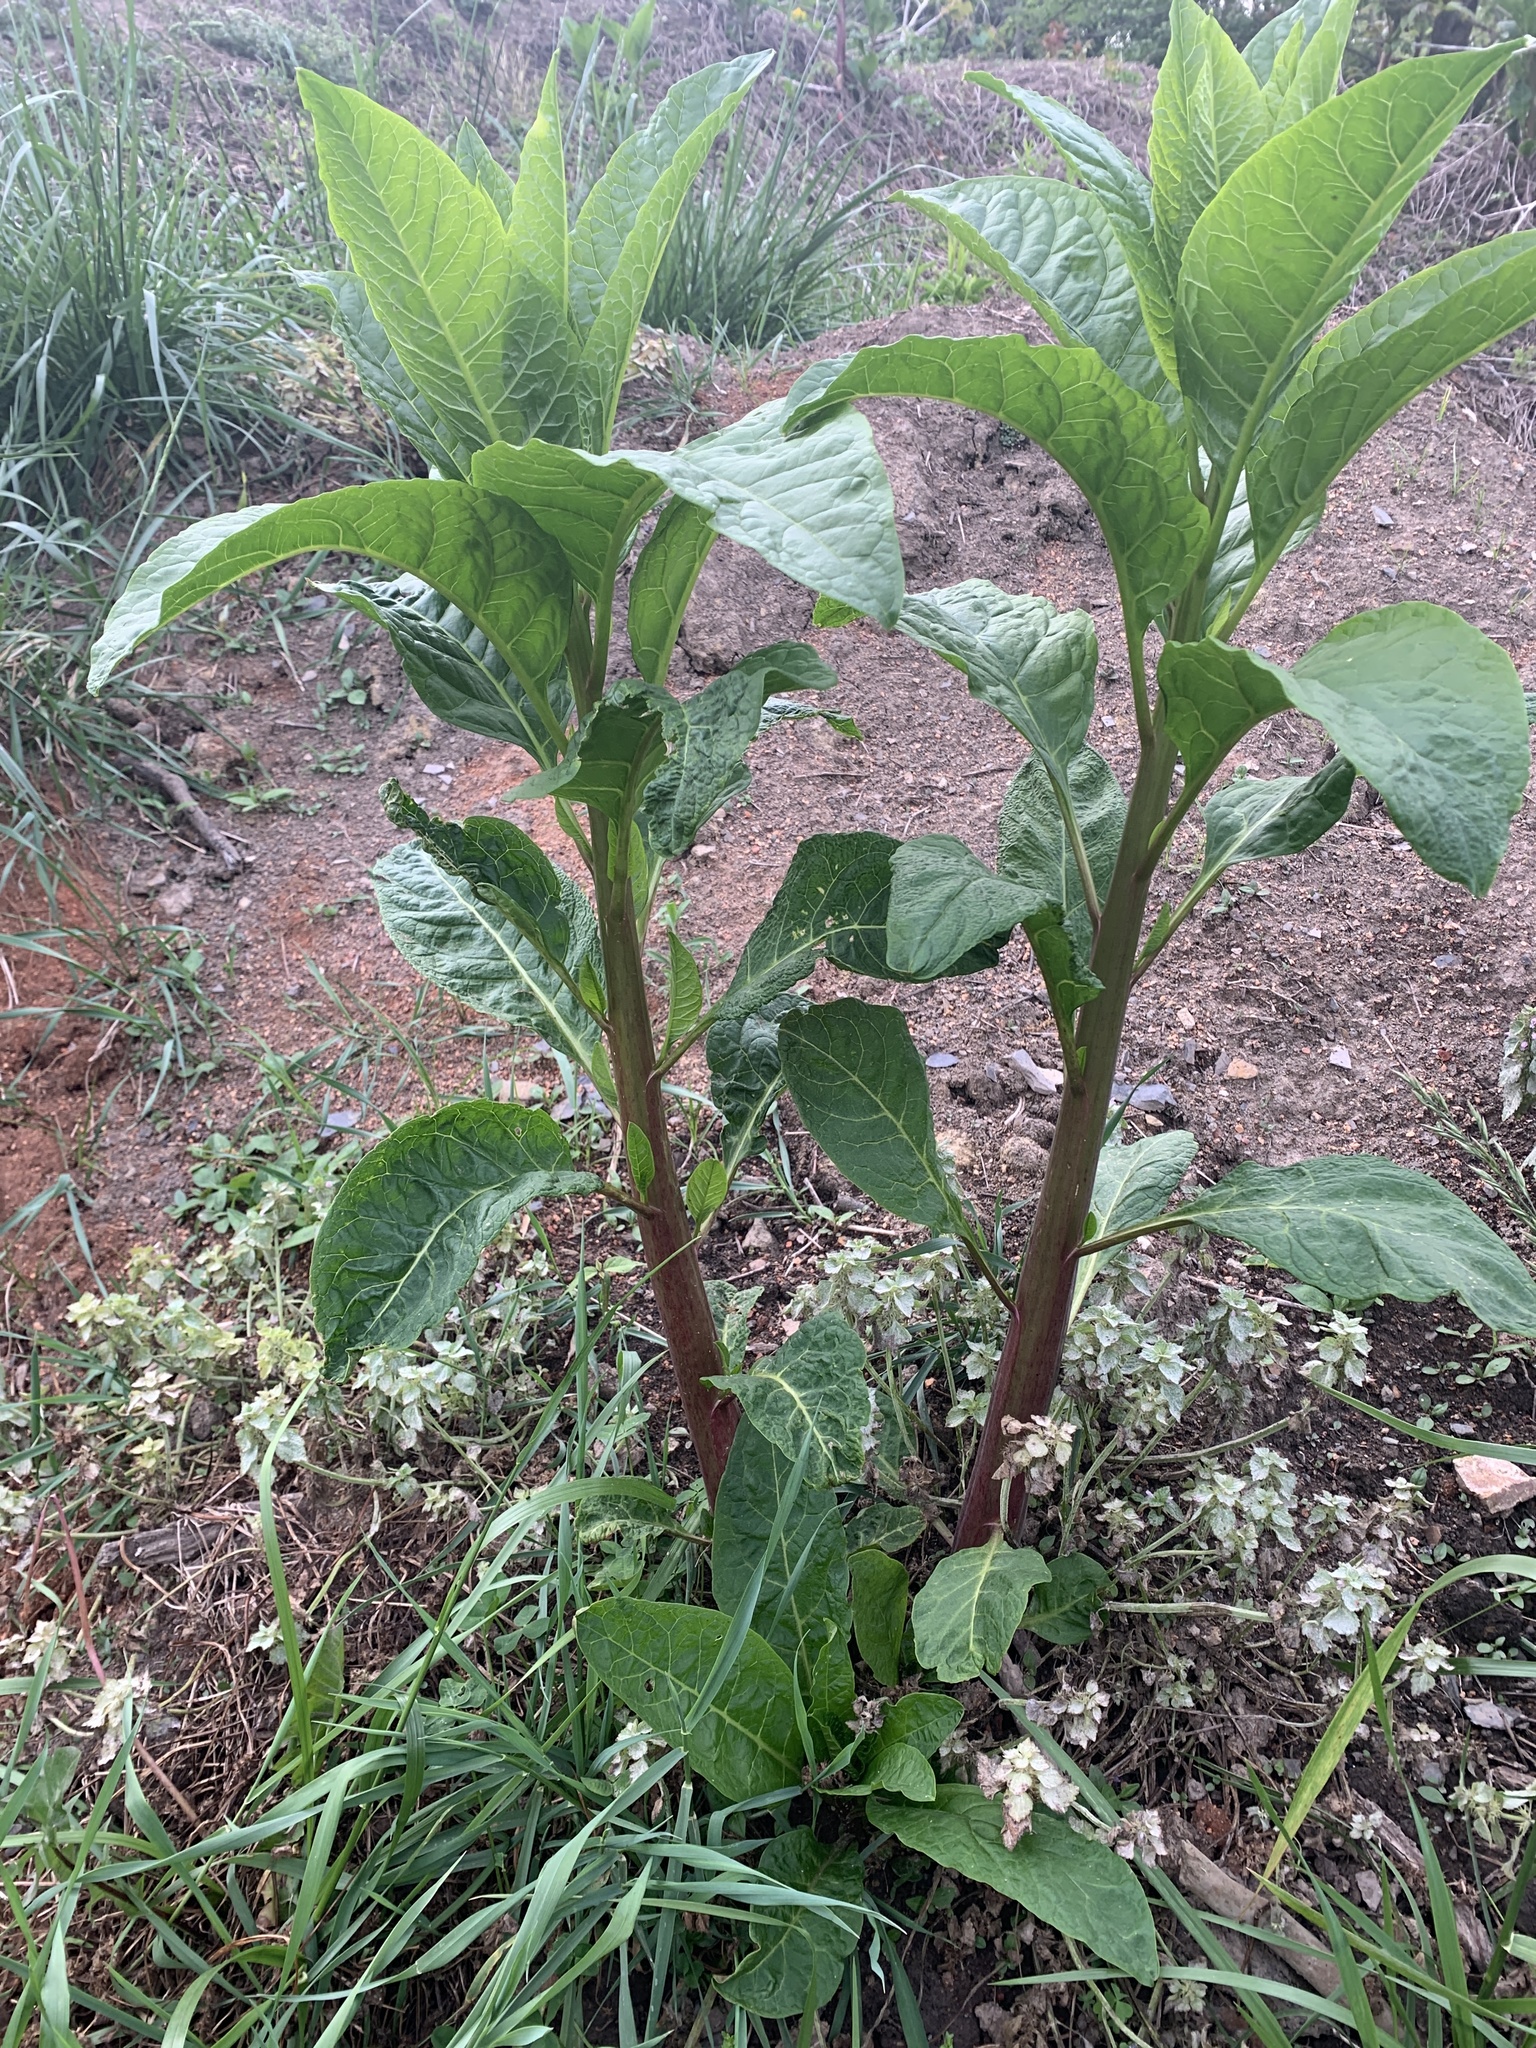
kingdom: Plantae
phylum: Tracheophyta
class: Magnoliopsida
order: Caryophyllales
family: Phytolaccaceae
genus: Phytolacca
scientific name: Phytolacca americana
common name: American pokeweed
